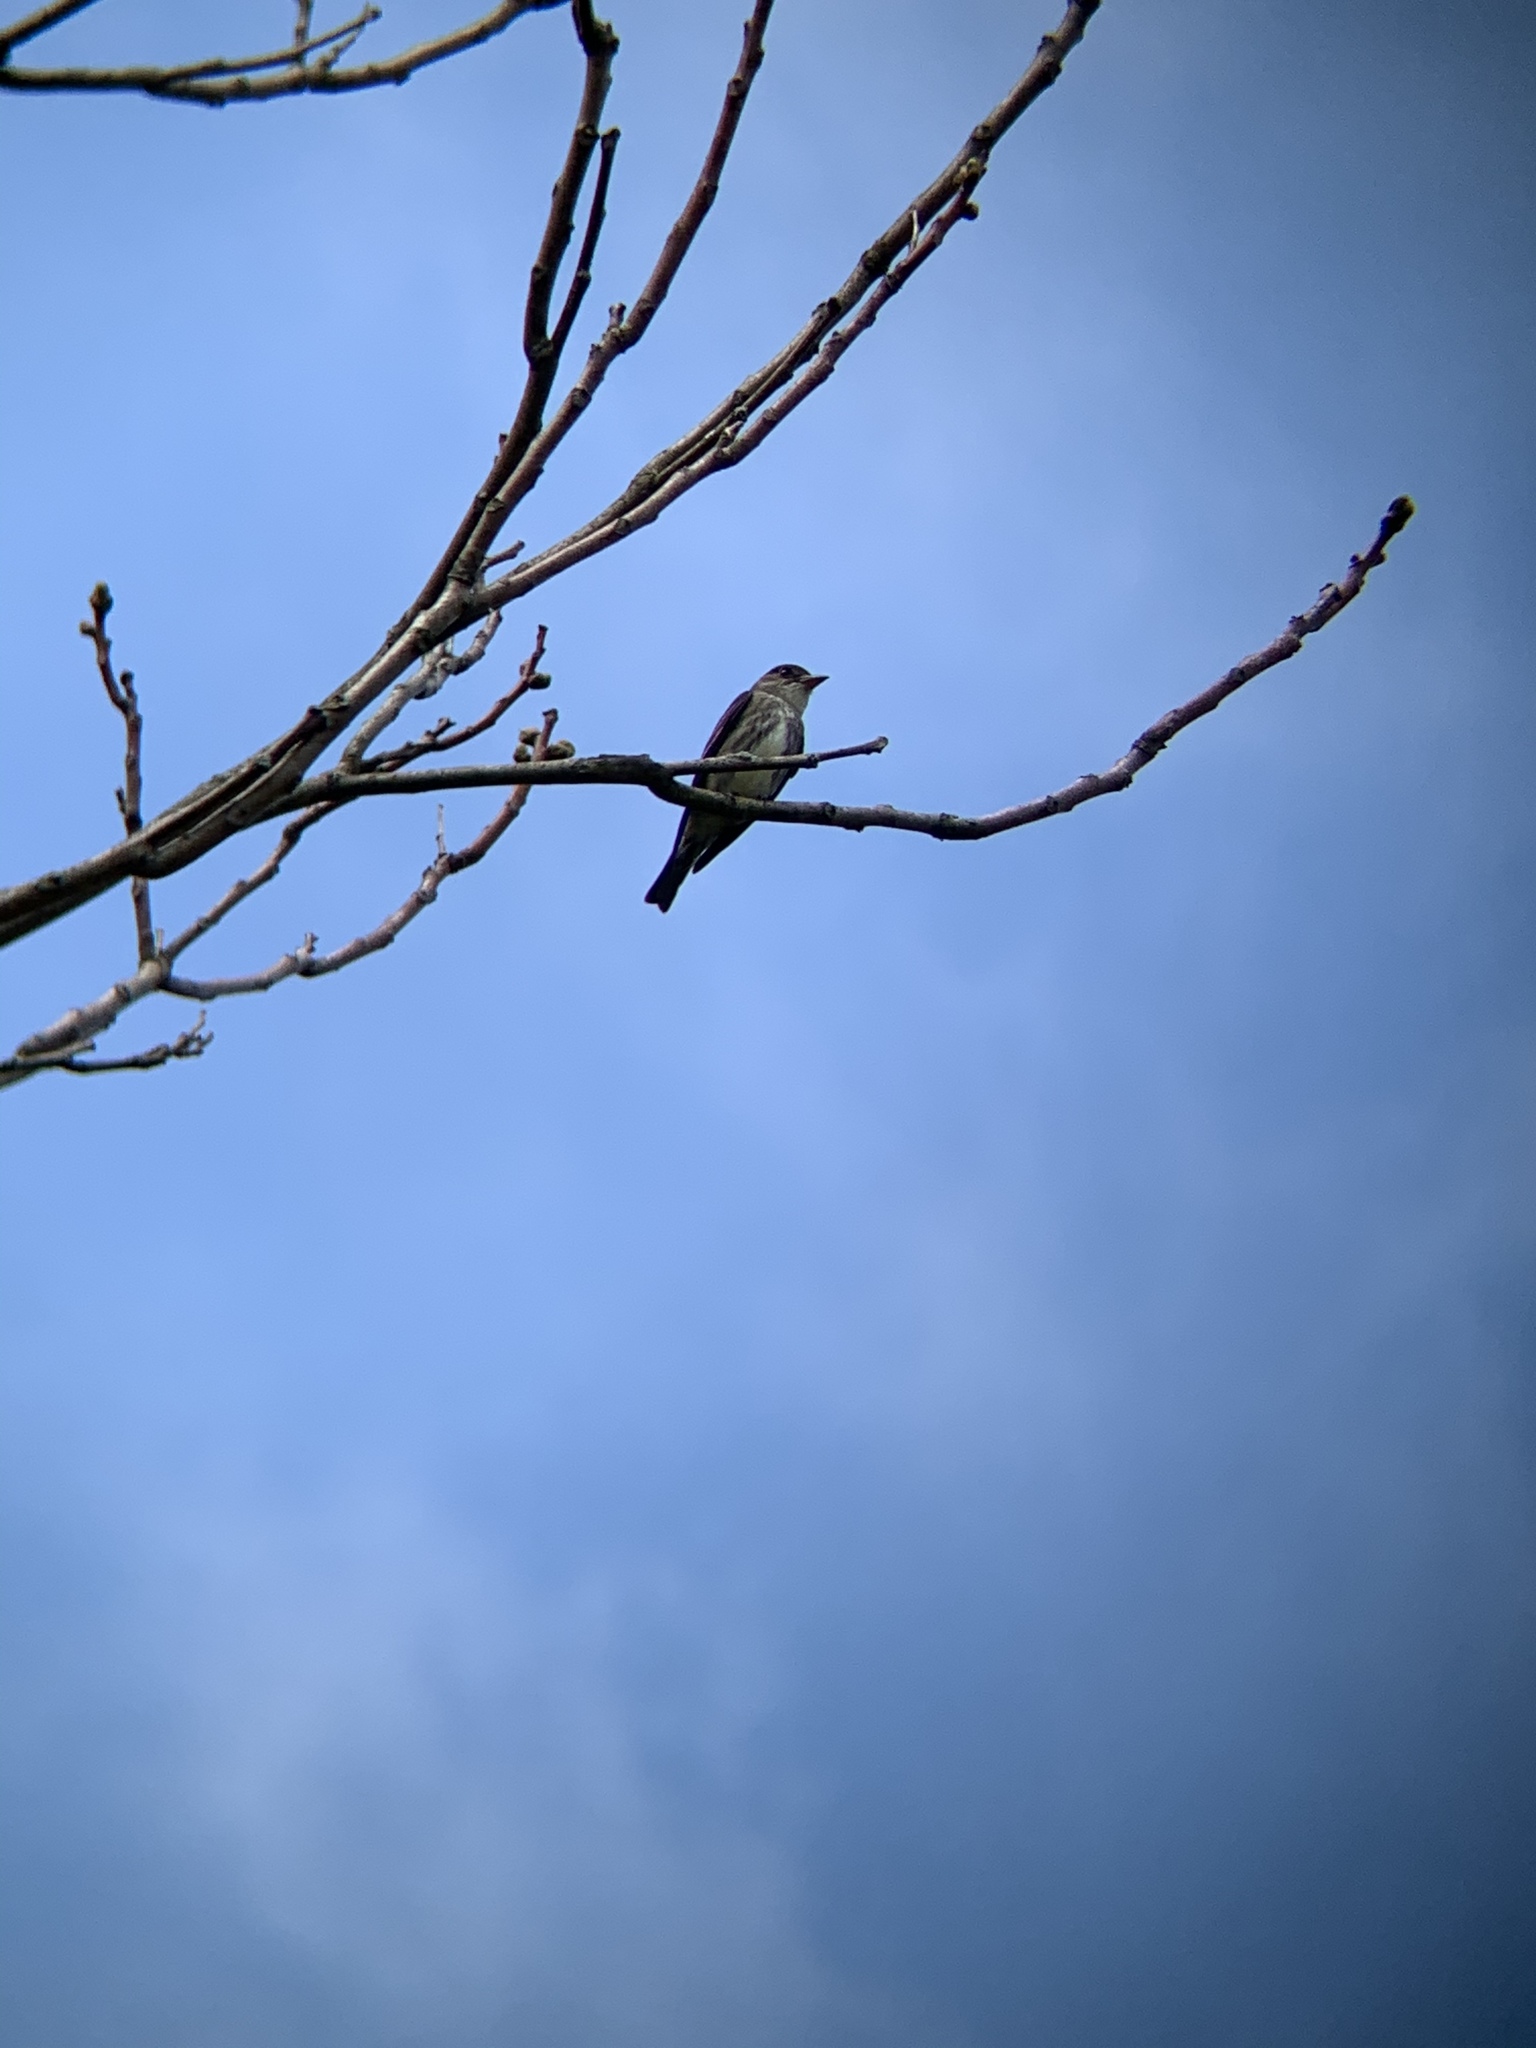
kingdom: Animalia
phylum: Chordata
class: Aves
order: Passeriformes
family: Tyrannidae
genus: Contopus
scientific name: Contopus cooperi
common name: Olive-sided flycatcher
